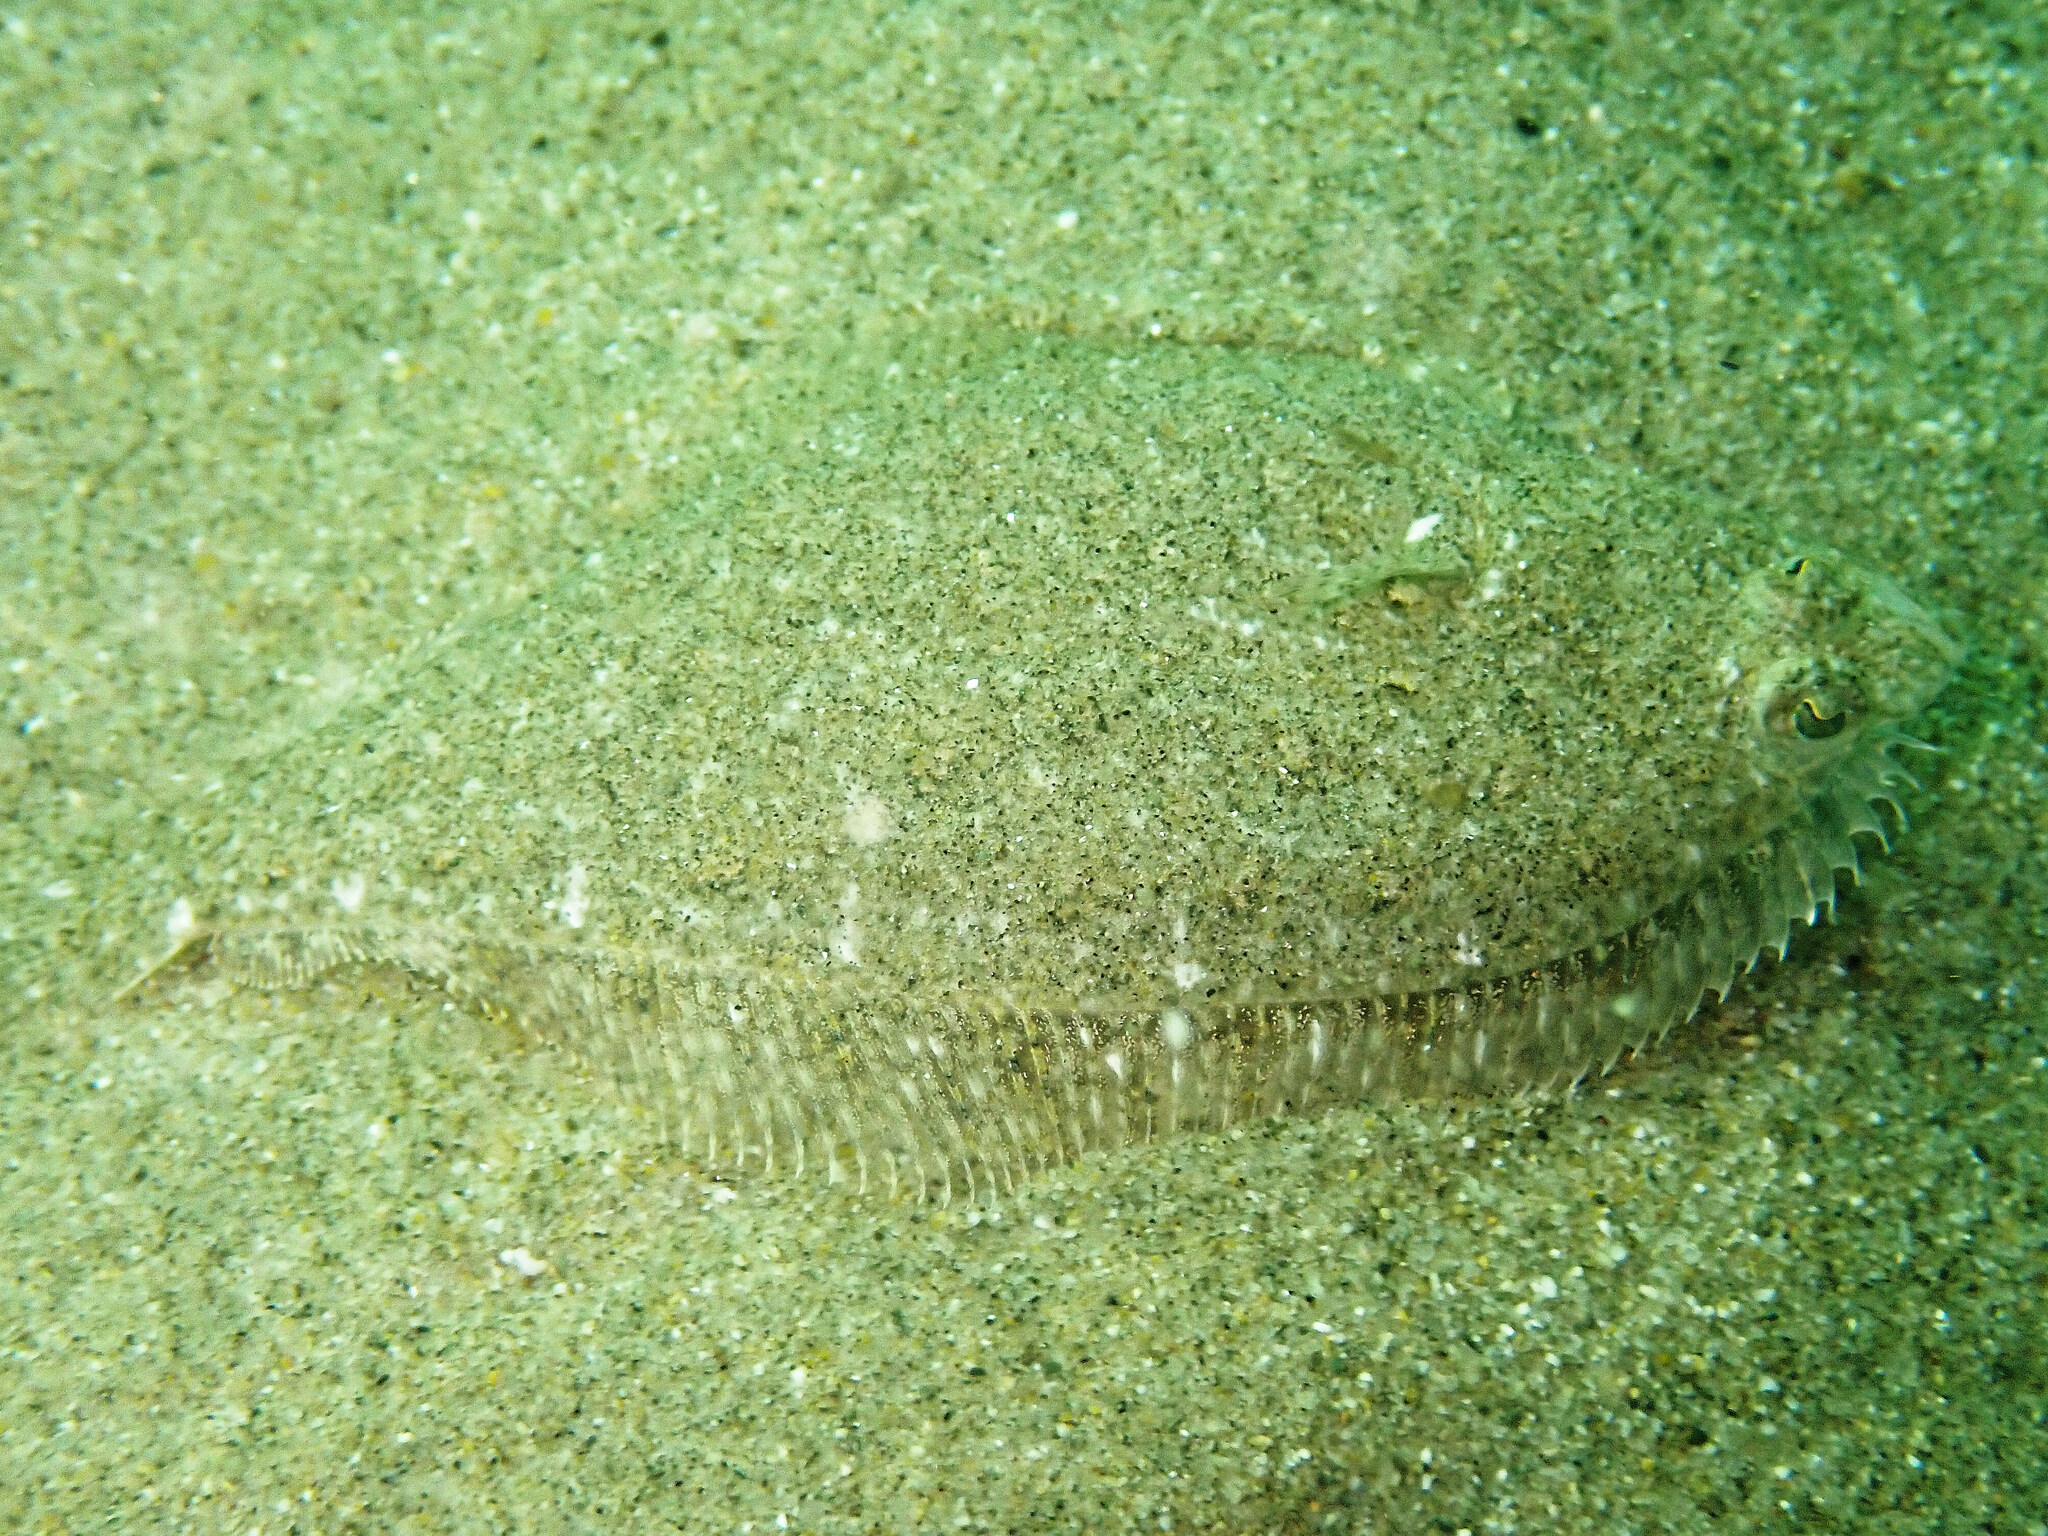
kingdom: Animalia
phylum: Chordata
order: Pleuronectiformes
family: Paralichthyidae
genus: Citharichthys
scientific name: Citharichthys stigmaeus
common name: Speckled sanddab
